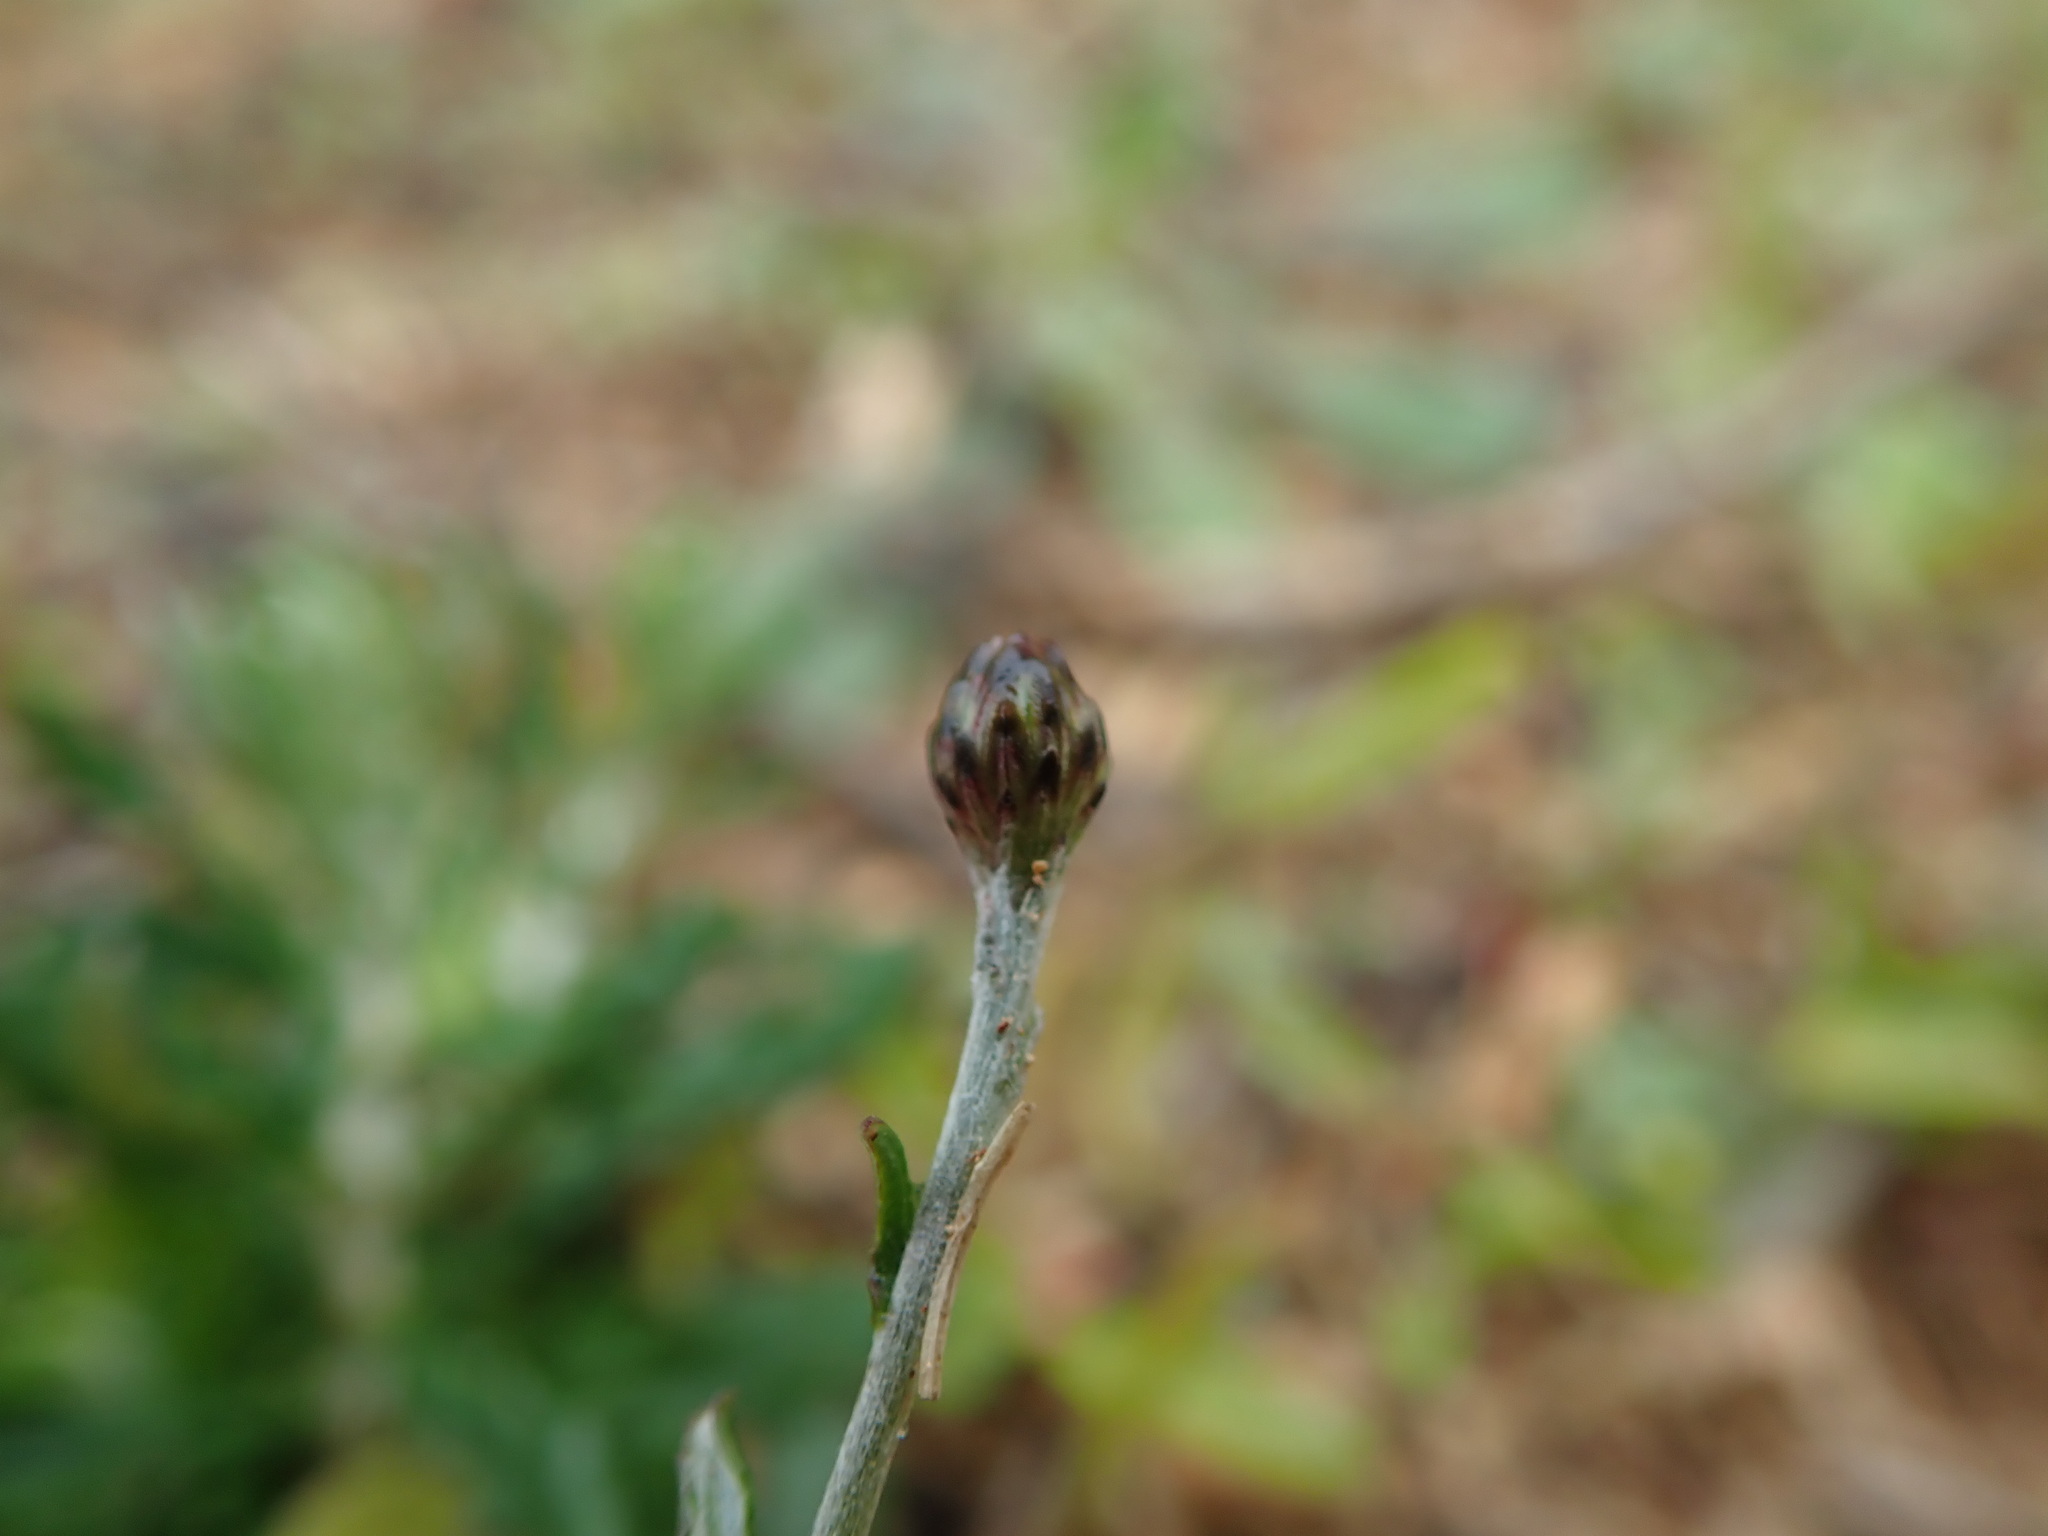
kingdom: Plantae
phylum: Tracheophyta
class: Magnoliopsida
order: Asterales
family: Asteraceae
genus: Phagnalon
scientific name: Phagnalon rupestre
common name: Rock phagnalon
